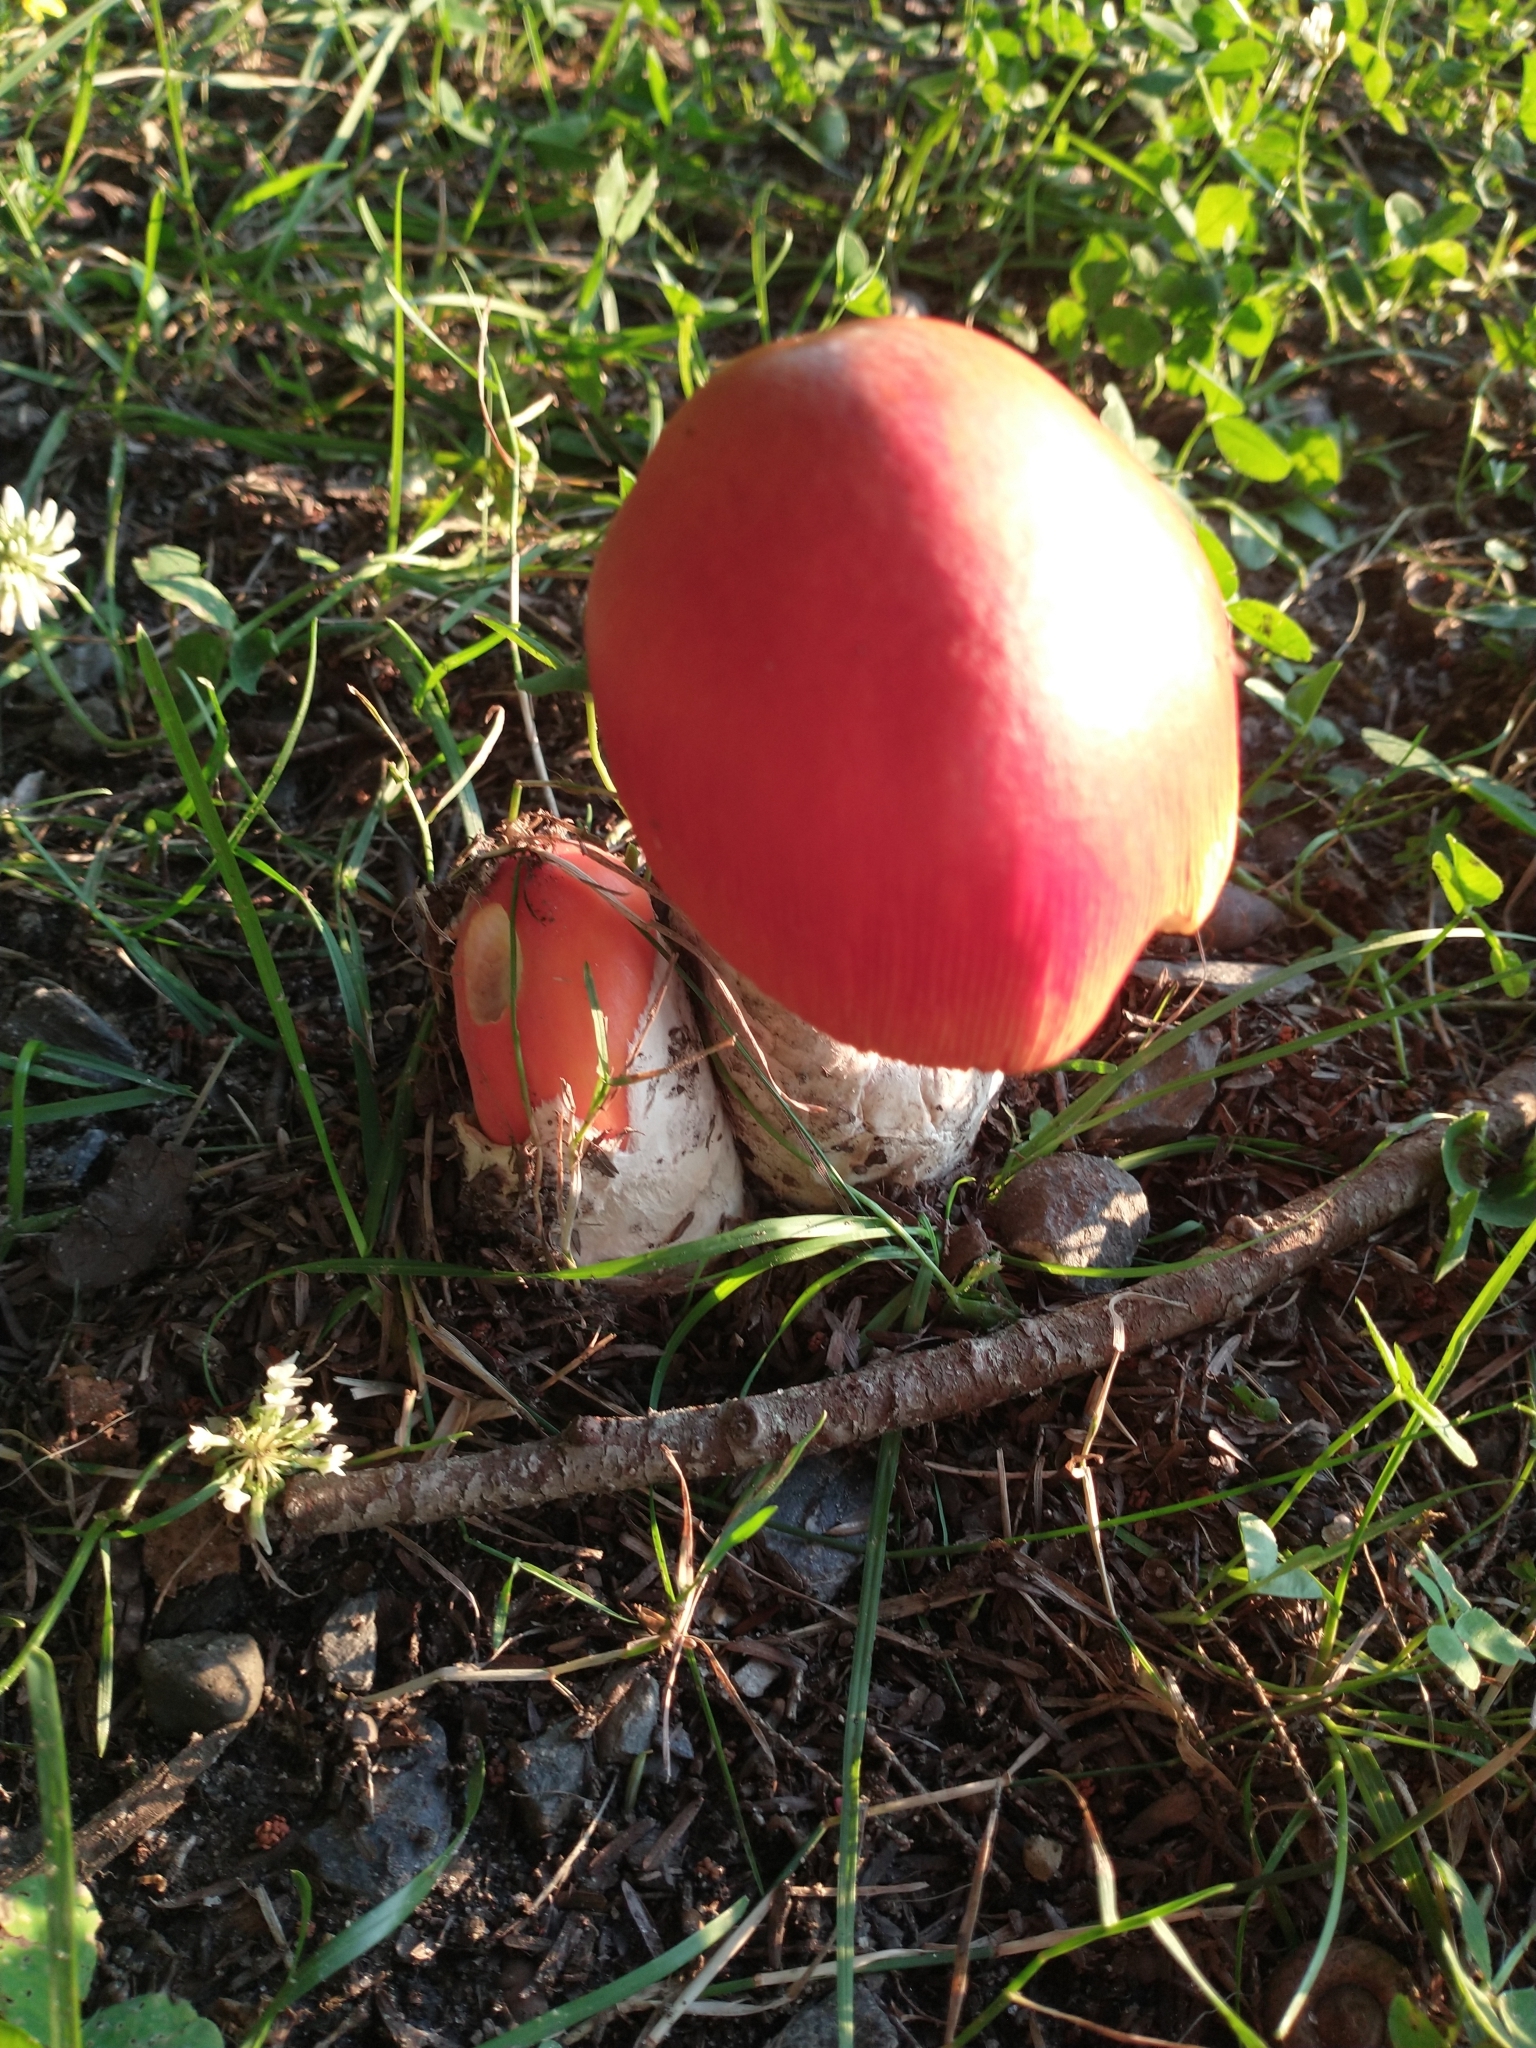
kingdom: Fungi
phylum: Basidiomycota
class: Agaricomycetes
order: Agaricales
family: Amanitaceae
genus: Amanita
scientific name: Amanita jacksonii
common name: Jackson's slender caesar
